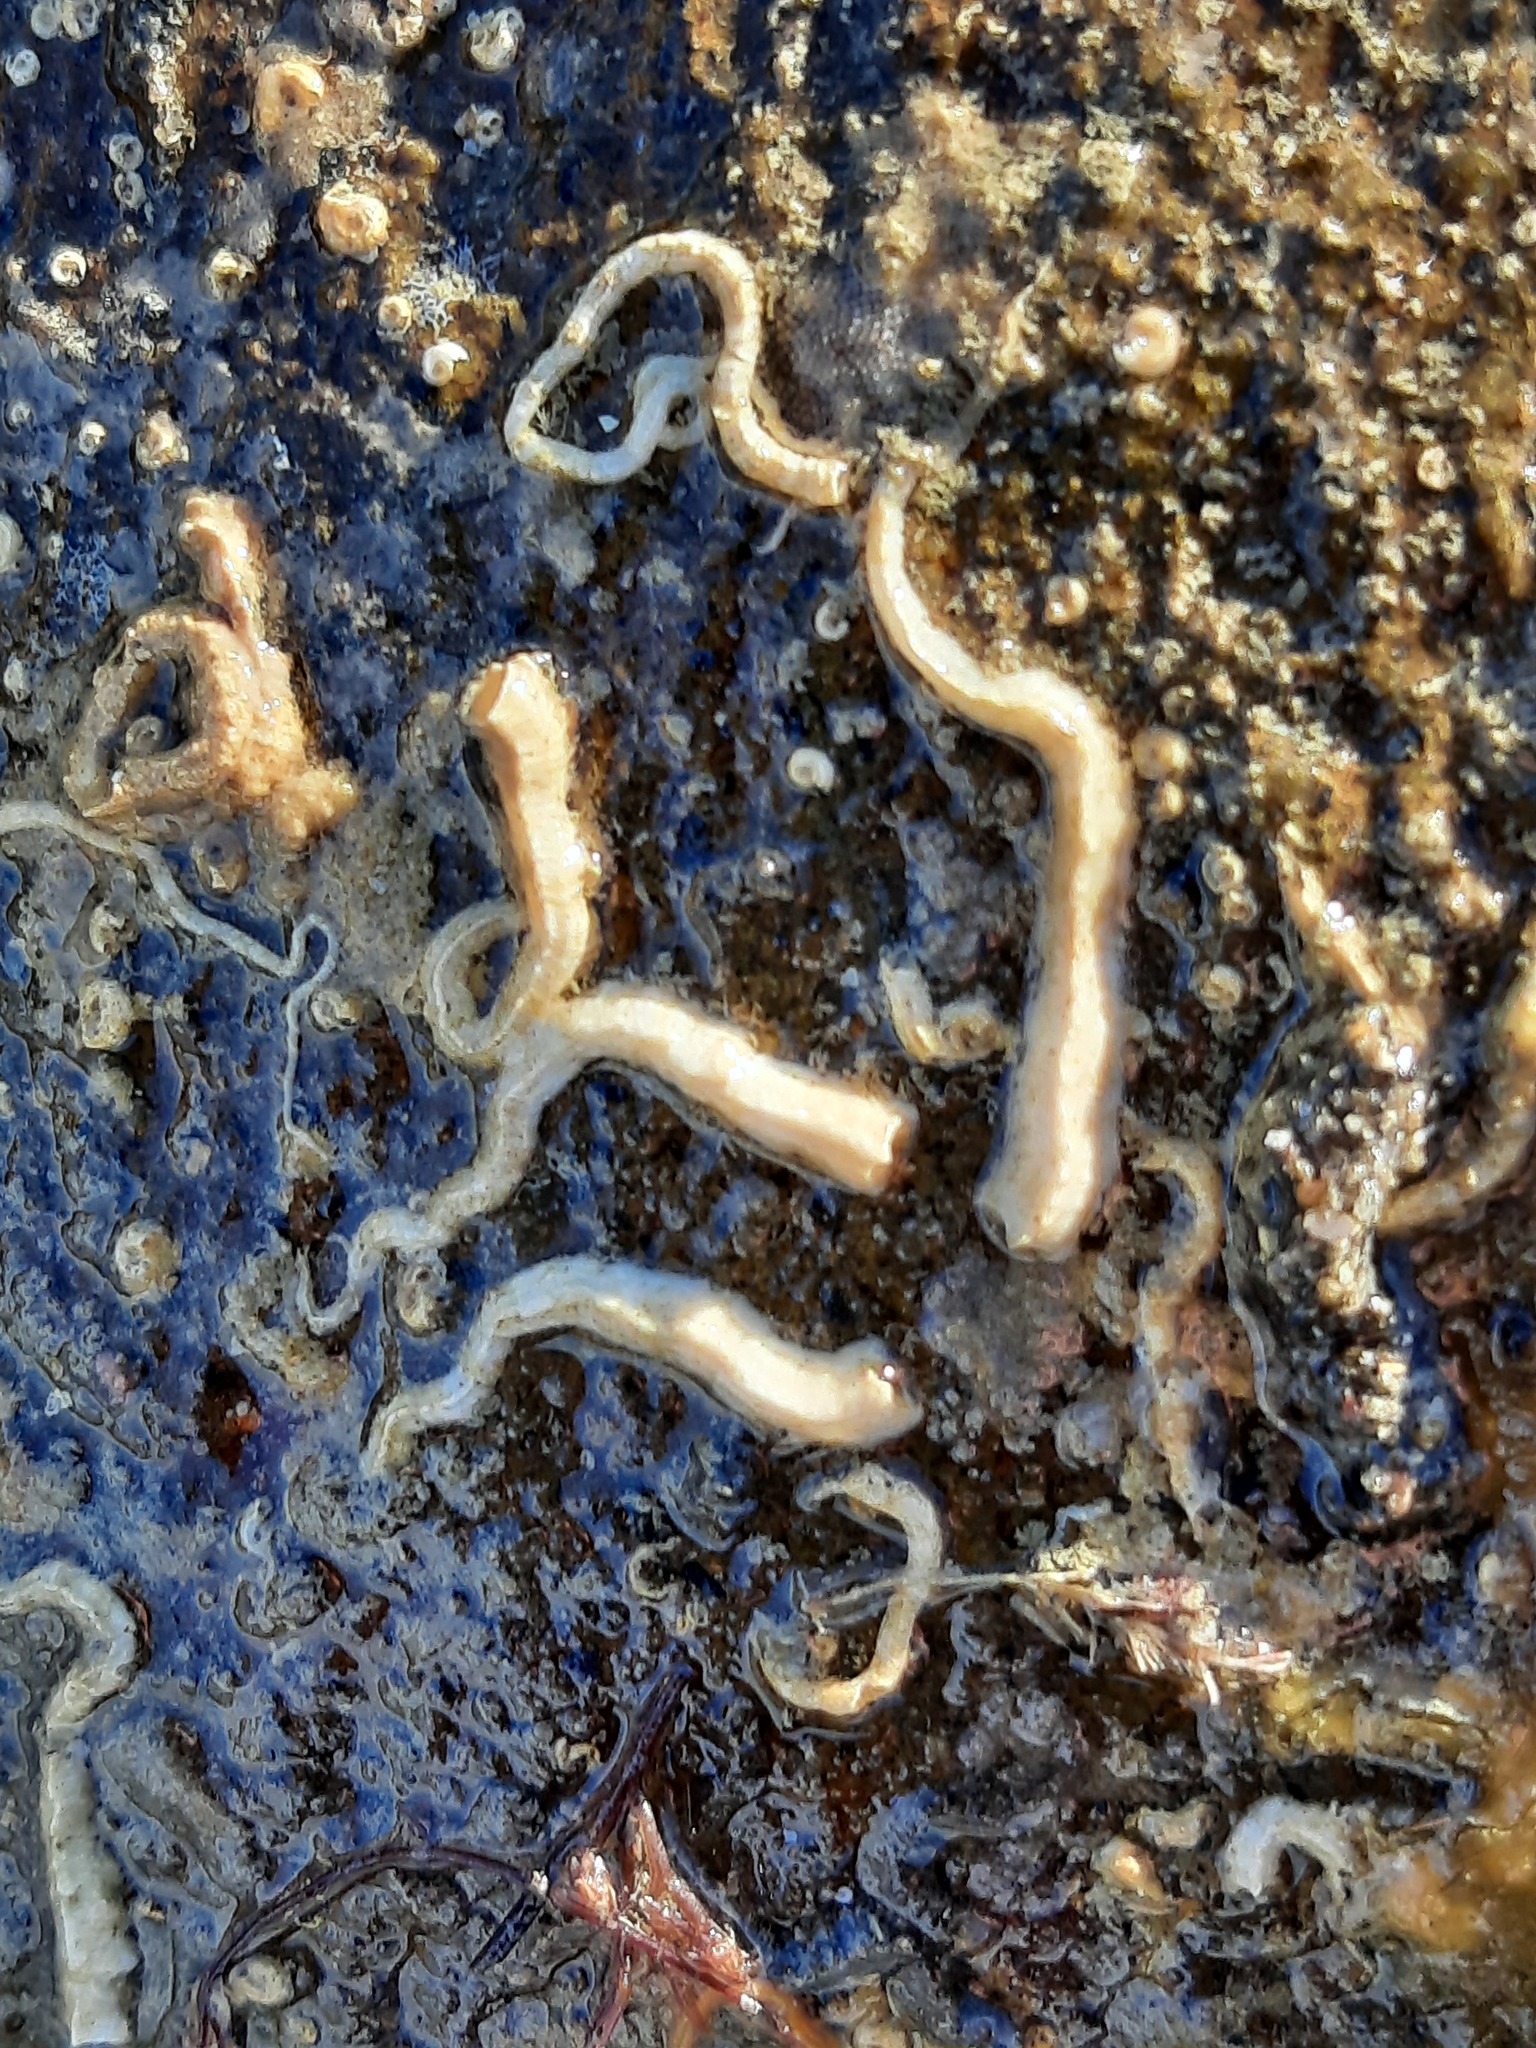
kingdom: Animalia
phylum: Annelida
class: Polychaeta
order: Sabellida
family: Serpulidae
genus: Spirobranchus
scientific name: Spirobranchus cariniferus
